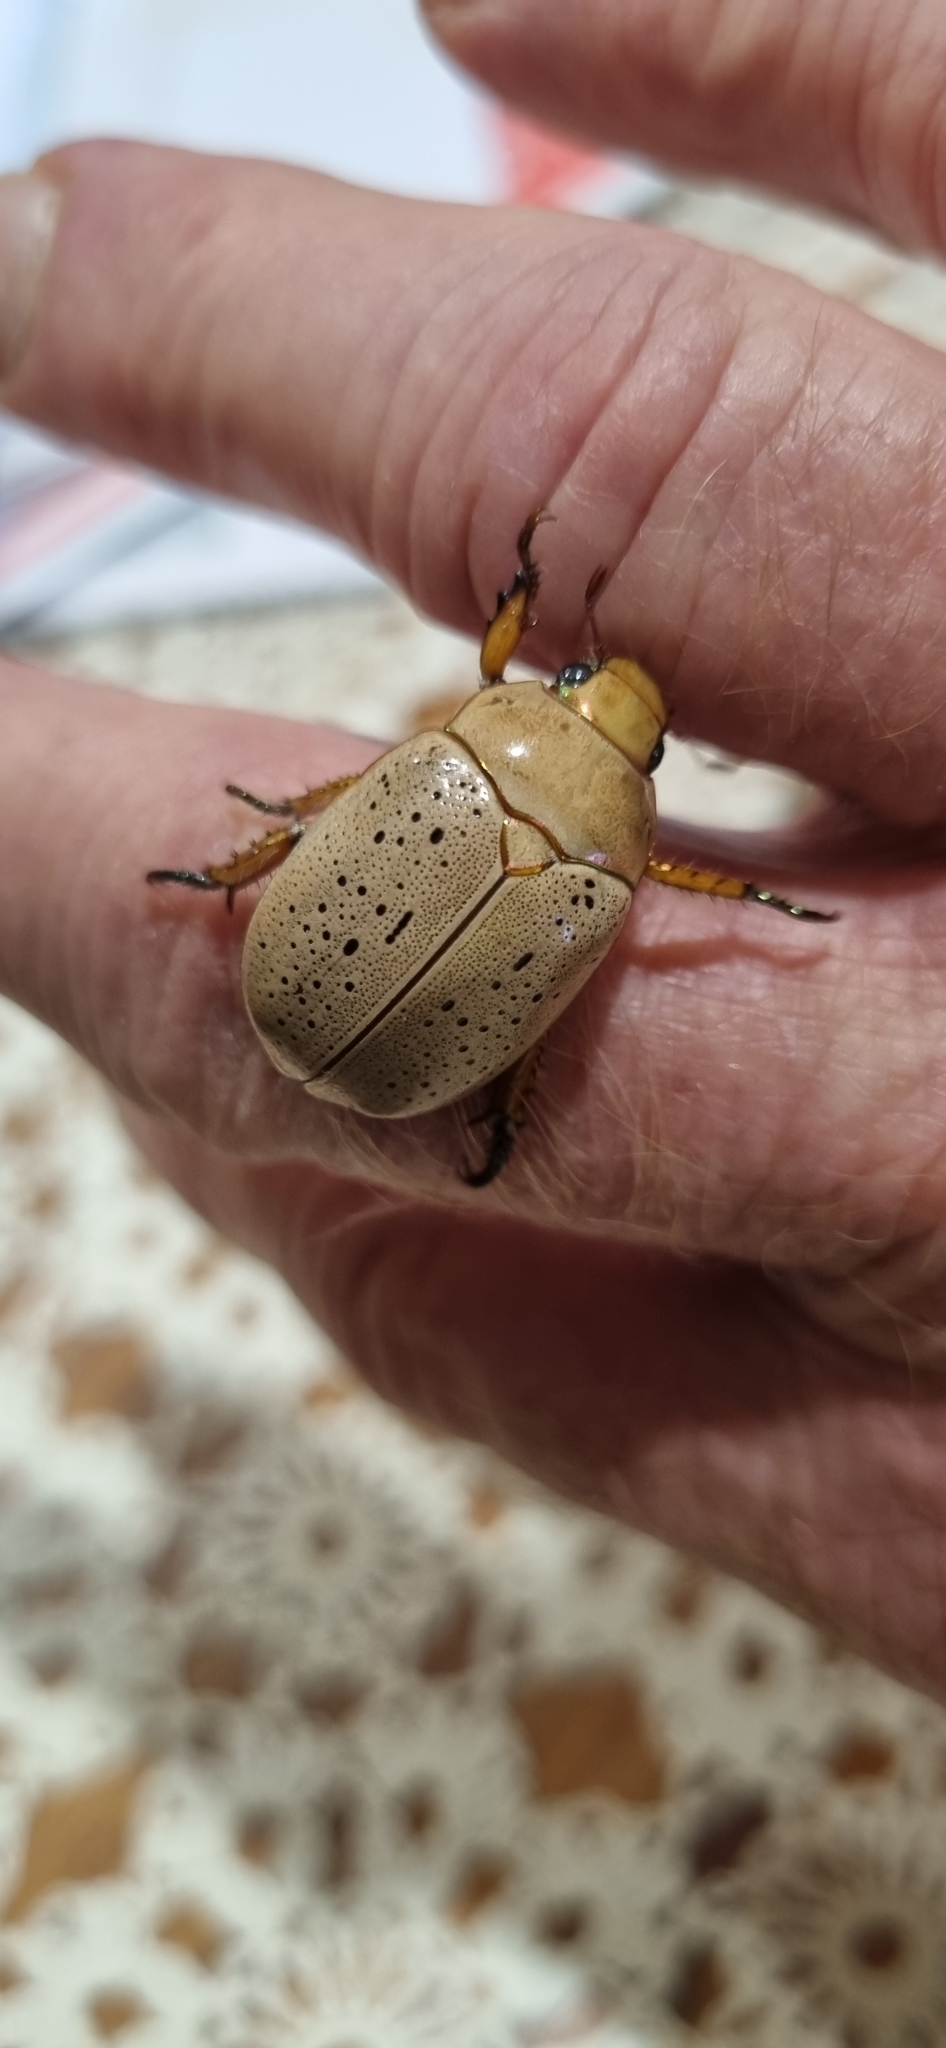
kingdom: Animalia
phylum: Arthropoda
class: Insecta
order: Coleoptera
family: Scarabaeidae
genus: Anoplognathus
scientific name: Anoplognathus porosus
